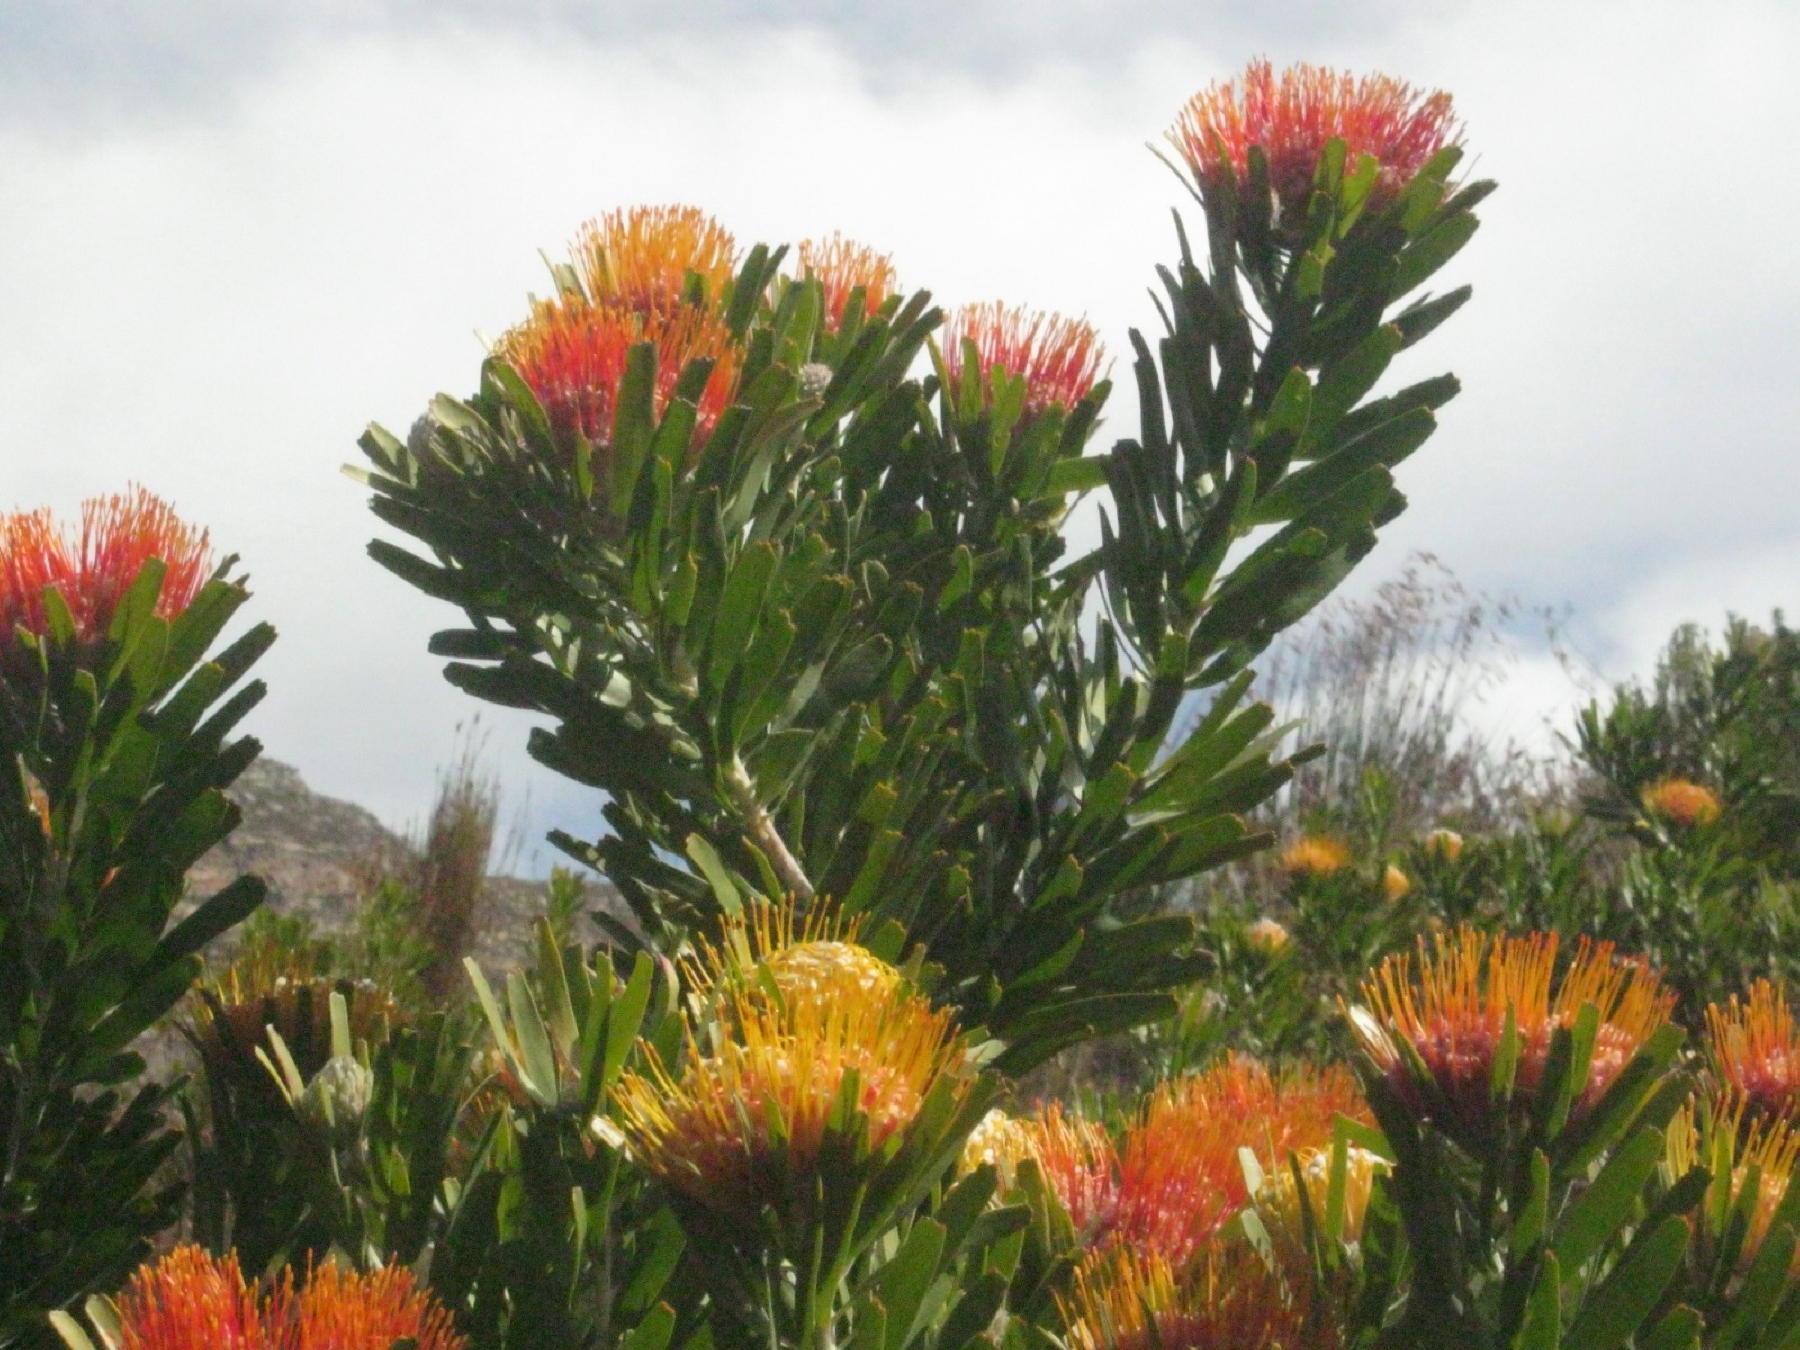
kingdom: Plantae
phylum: Tracheophyta
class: Magnoliopsida
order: Proteales
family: Proteaceae
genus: Leucospermum
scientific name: Leucospermum erubescens
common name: Oudtshoorn pincushion
